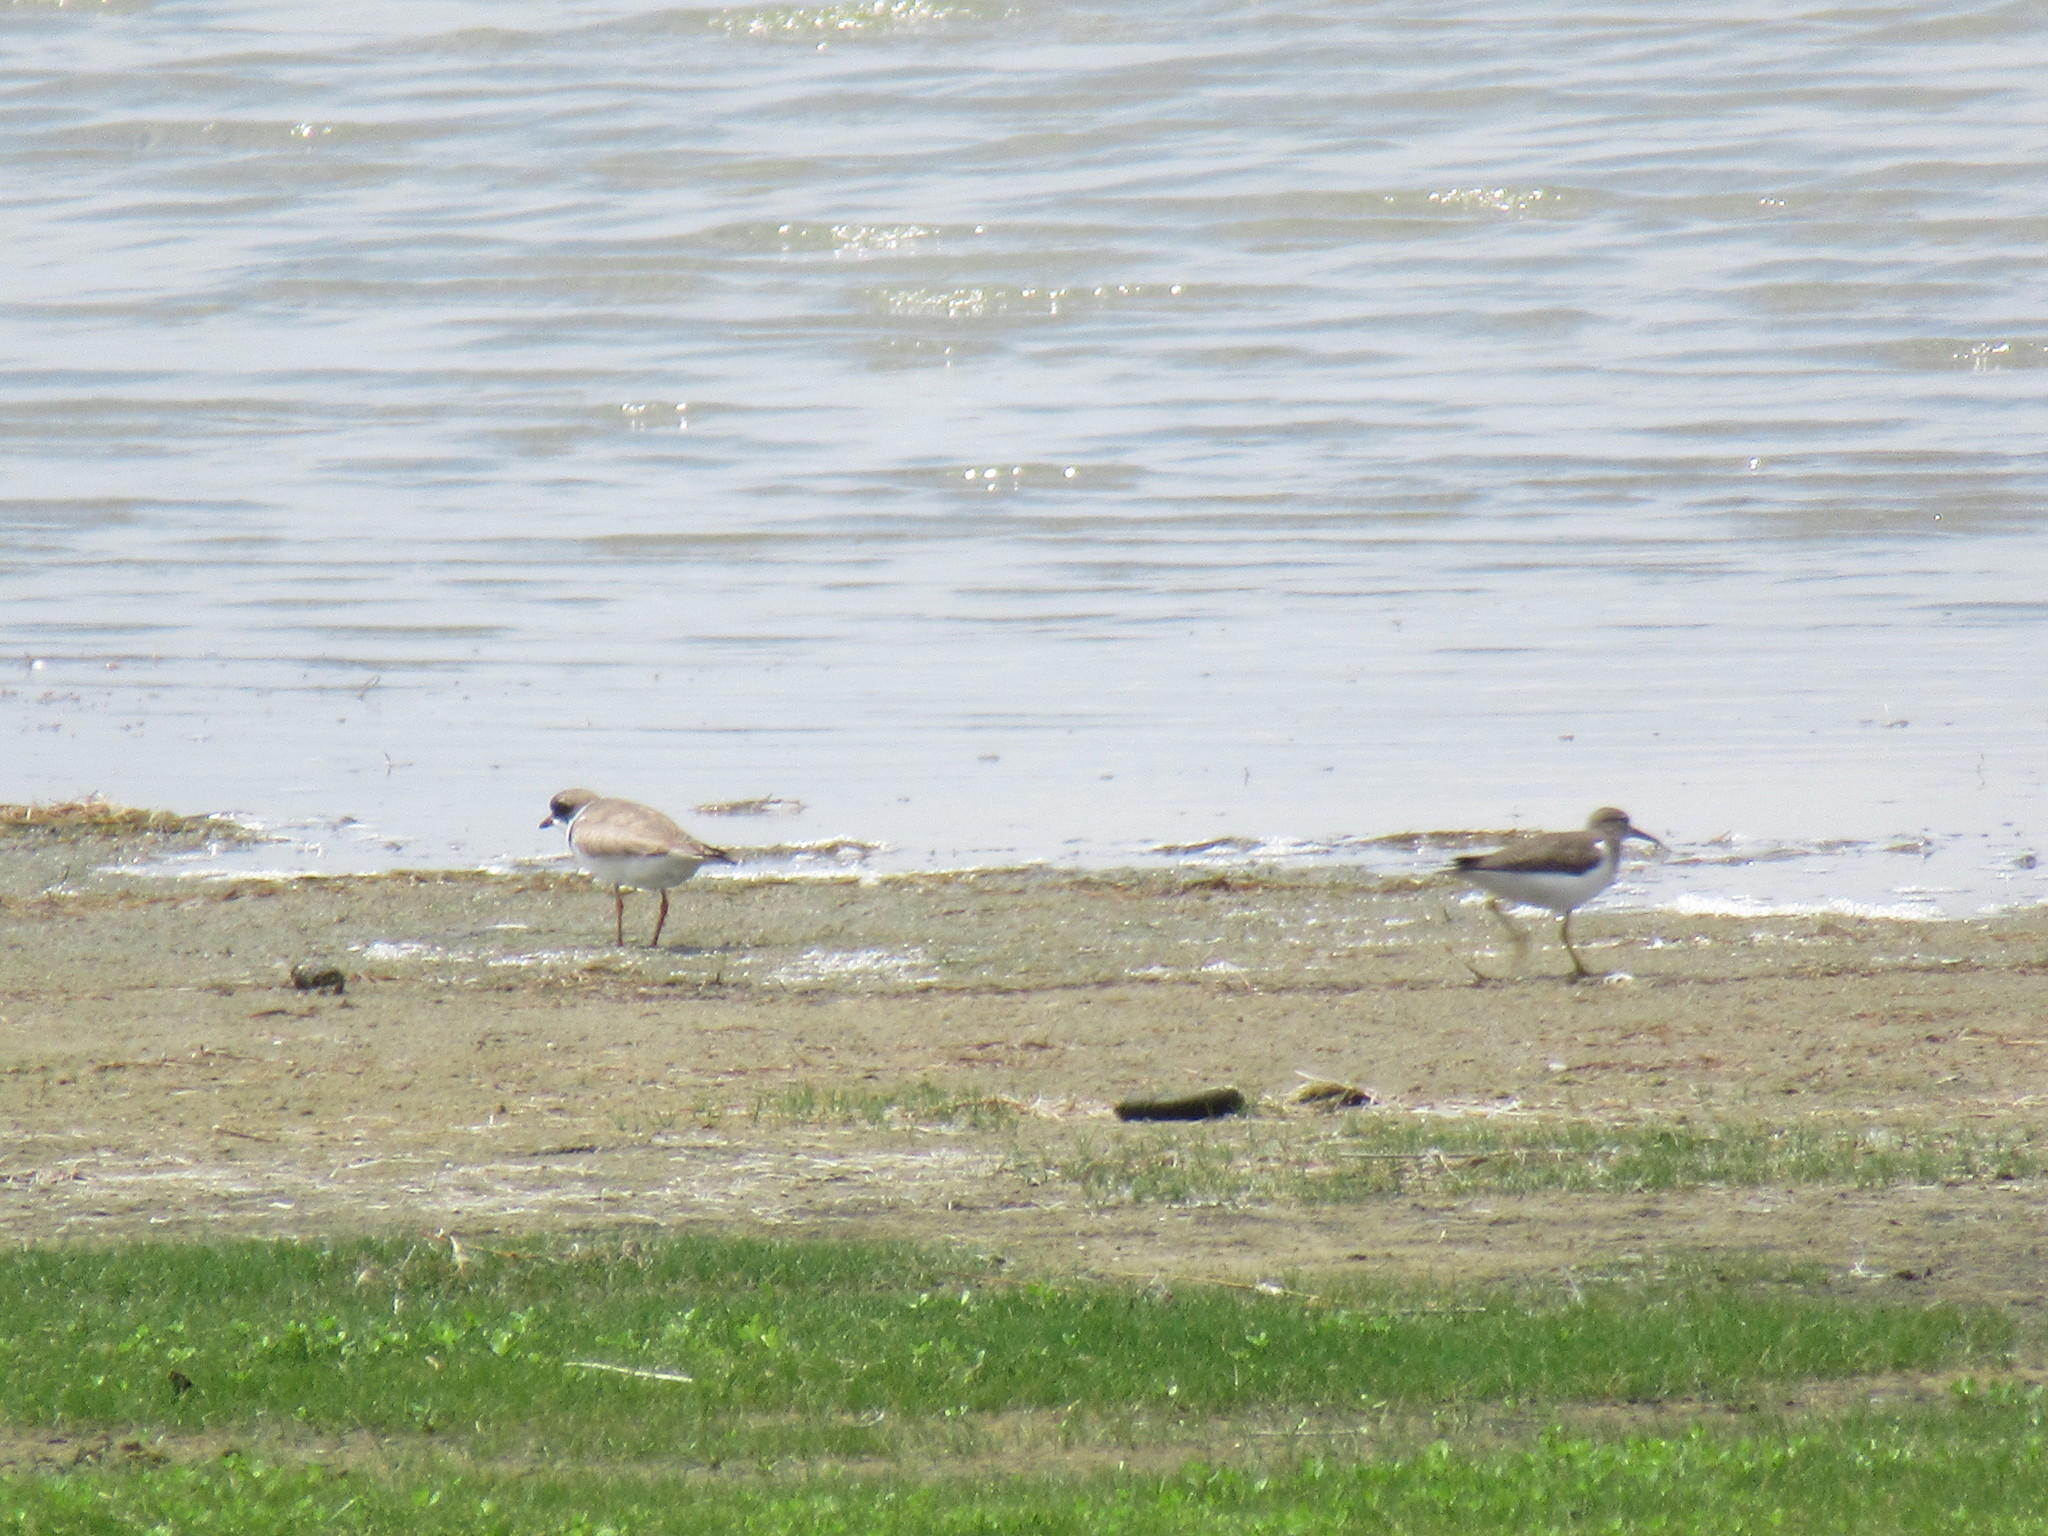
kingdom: Animalia
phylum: Chordata
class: Aves
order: Charadriiformes
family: Scolopacidae
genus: Actitis
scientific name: Actitis macularius
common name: Spotted sandpiper
